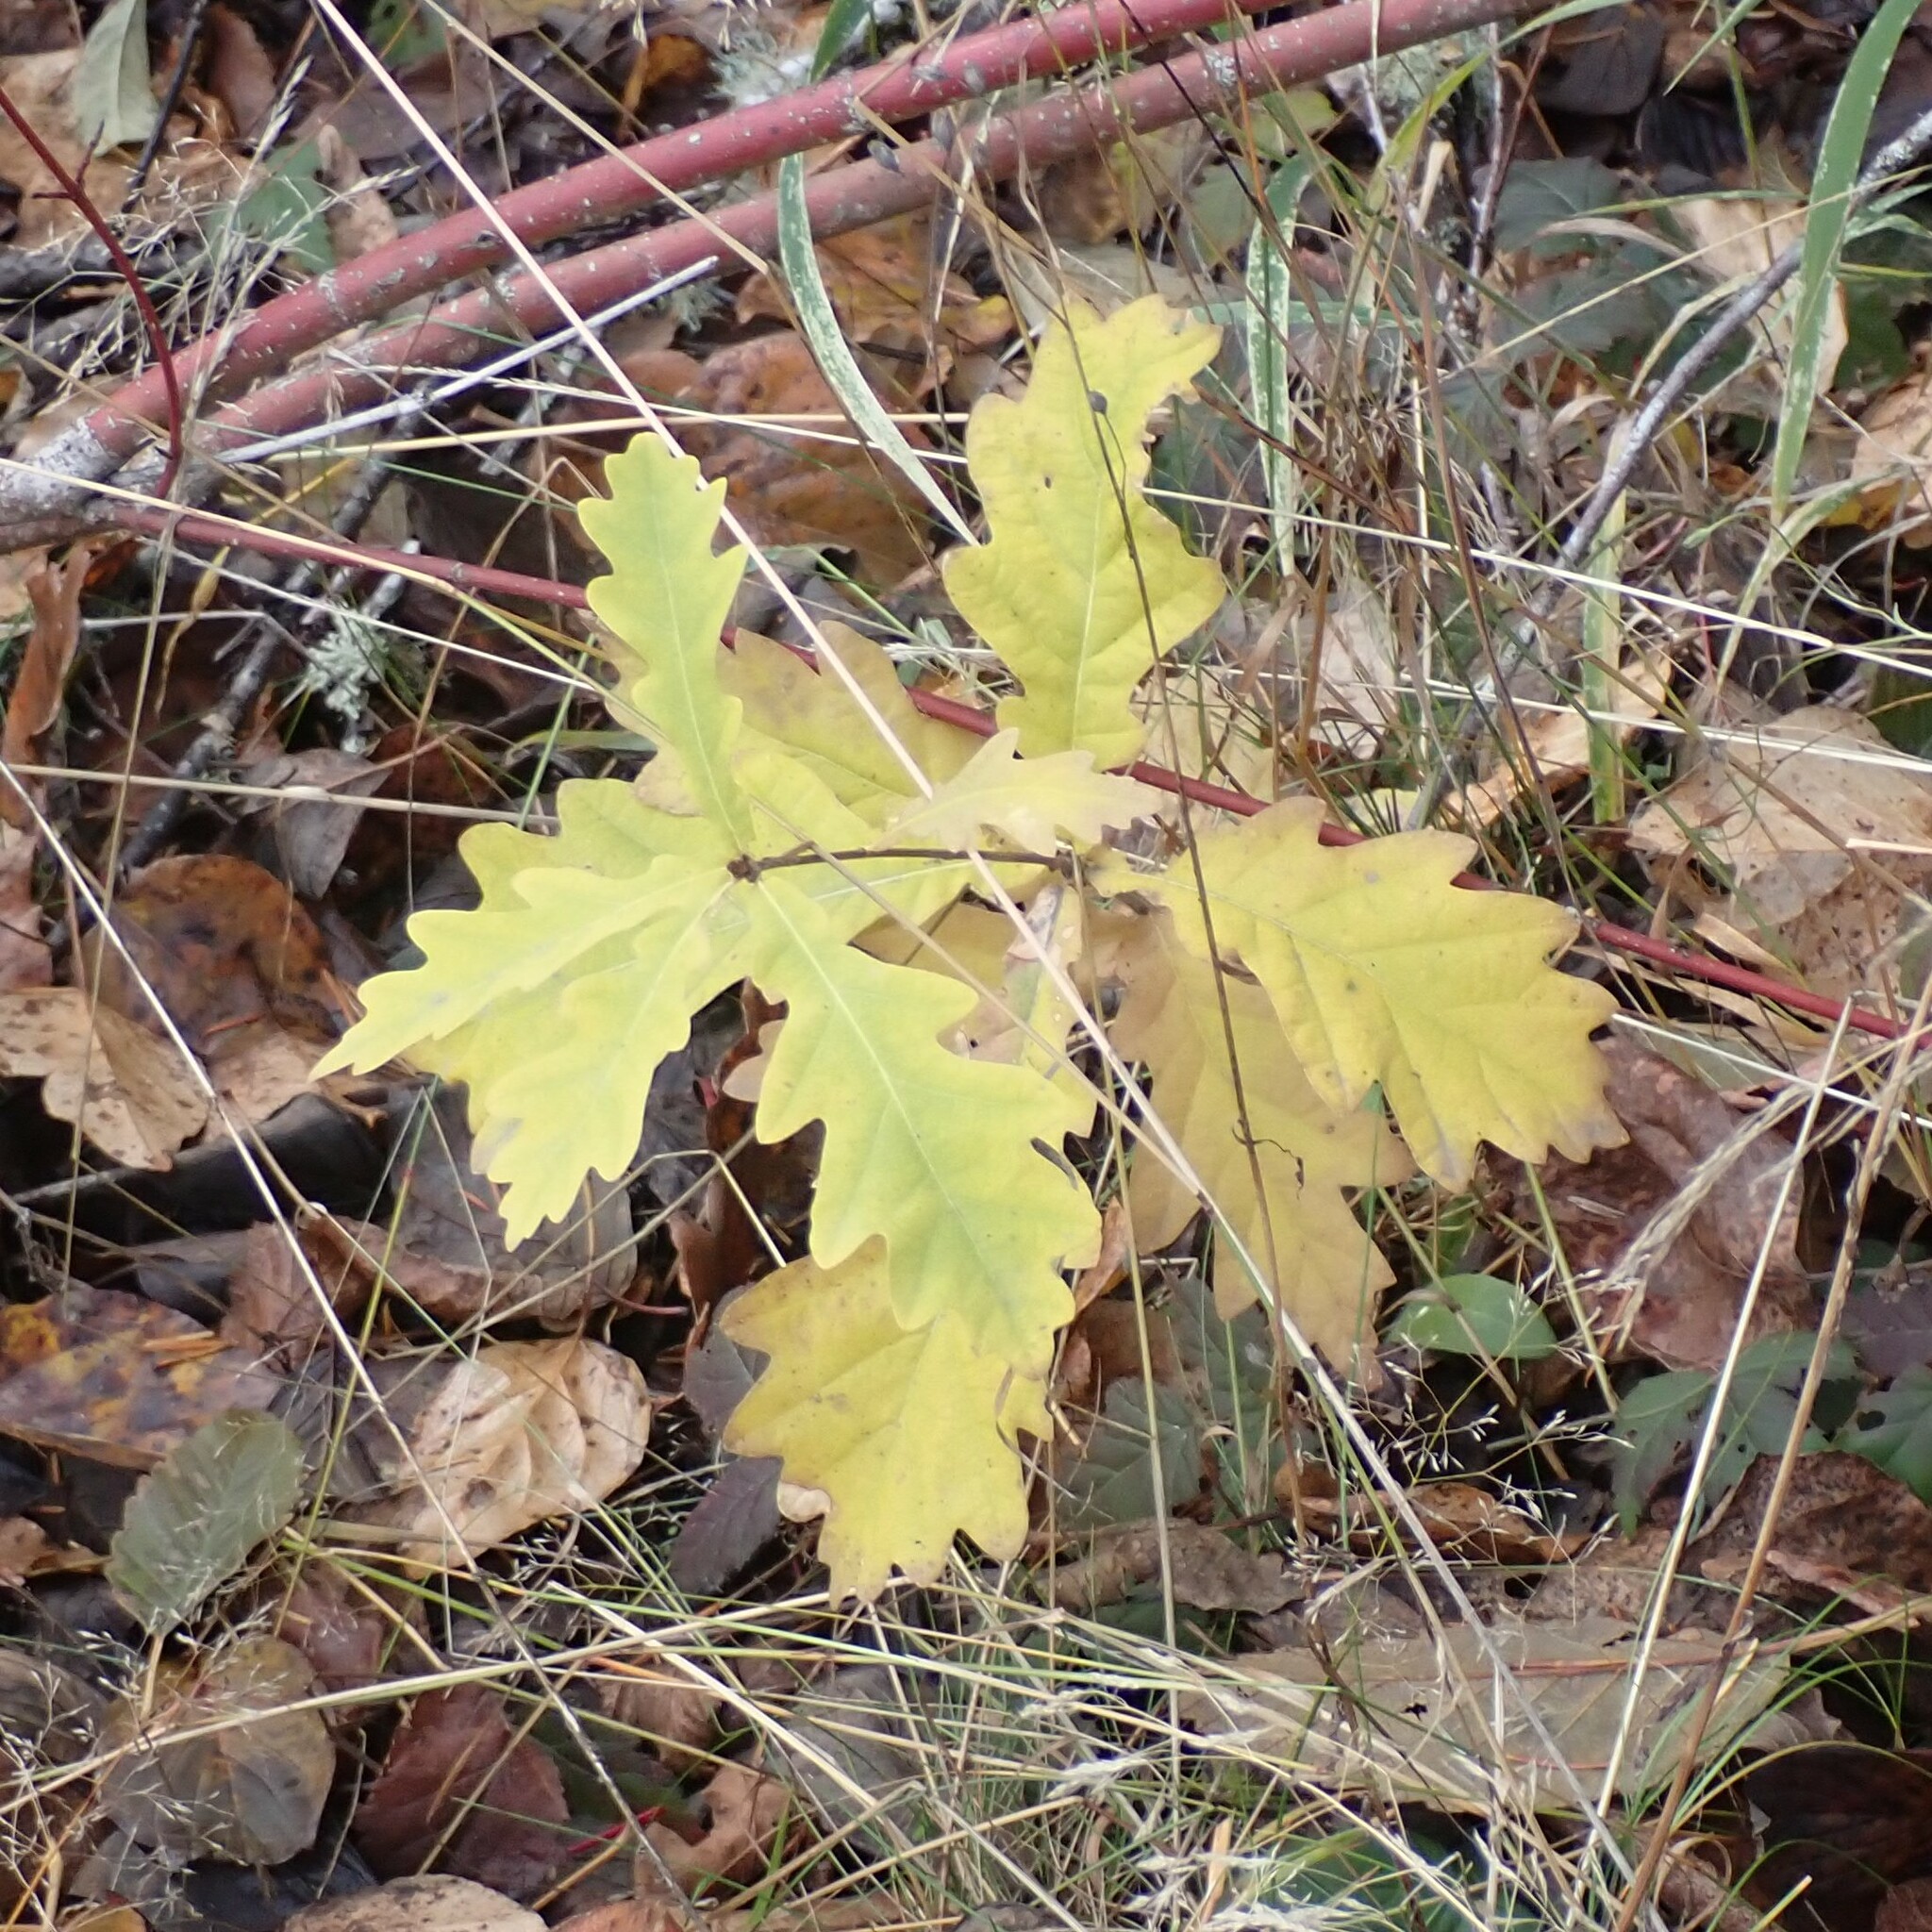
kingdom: Plantae
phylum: Tracheophyta
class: Magnoliopsida
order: Fagales
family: Fagaceae
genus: Quercus
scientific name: Quercus robur
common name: Pedunculate oak
